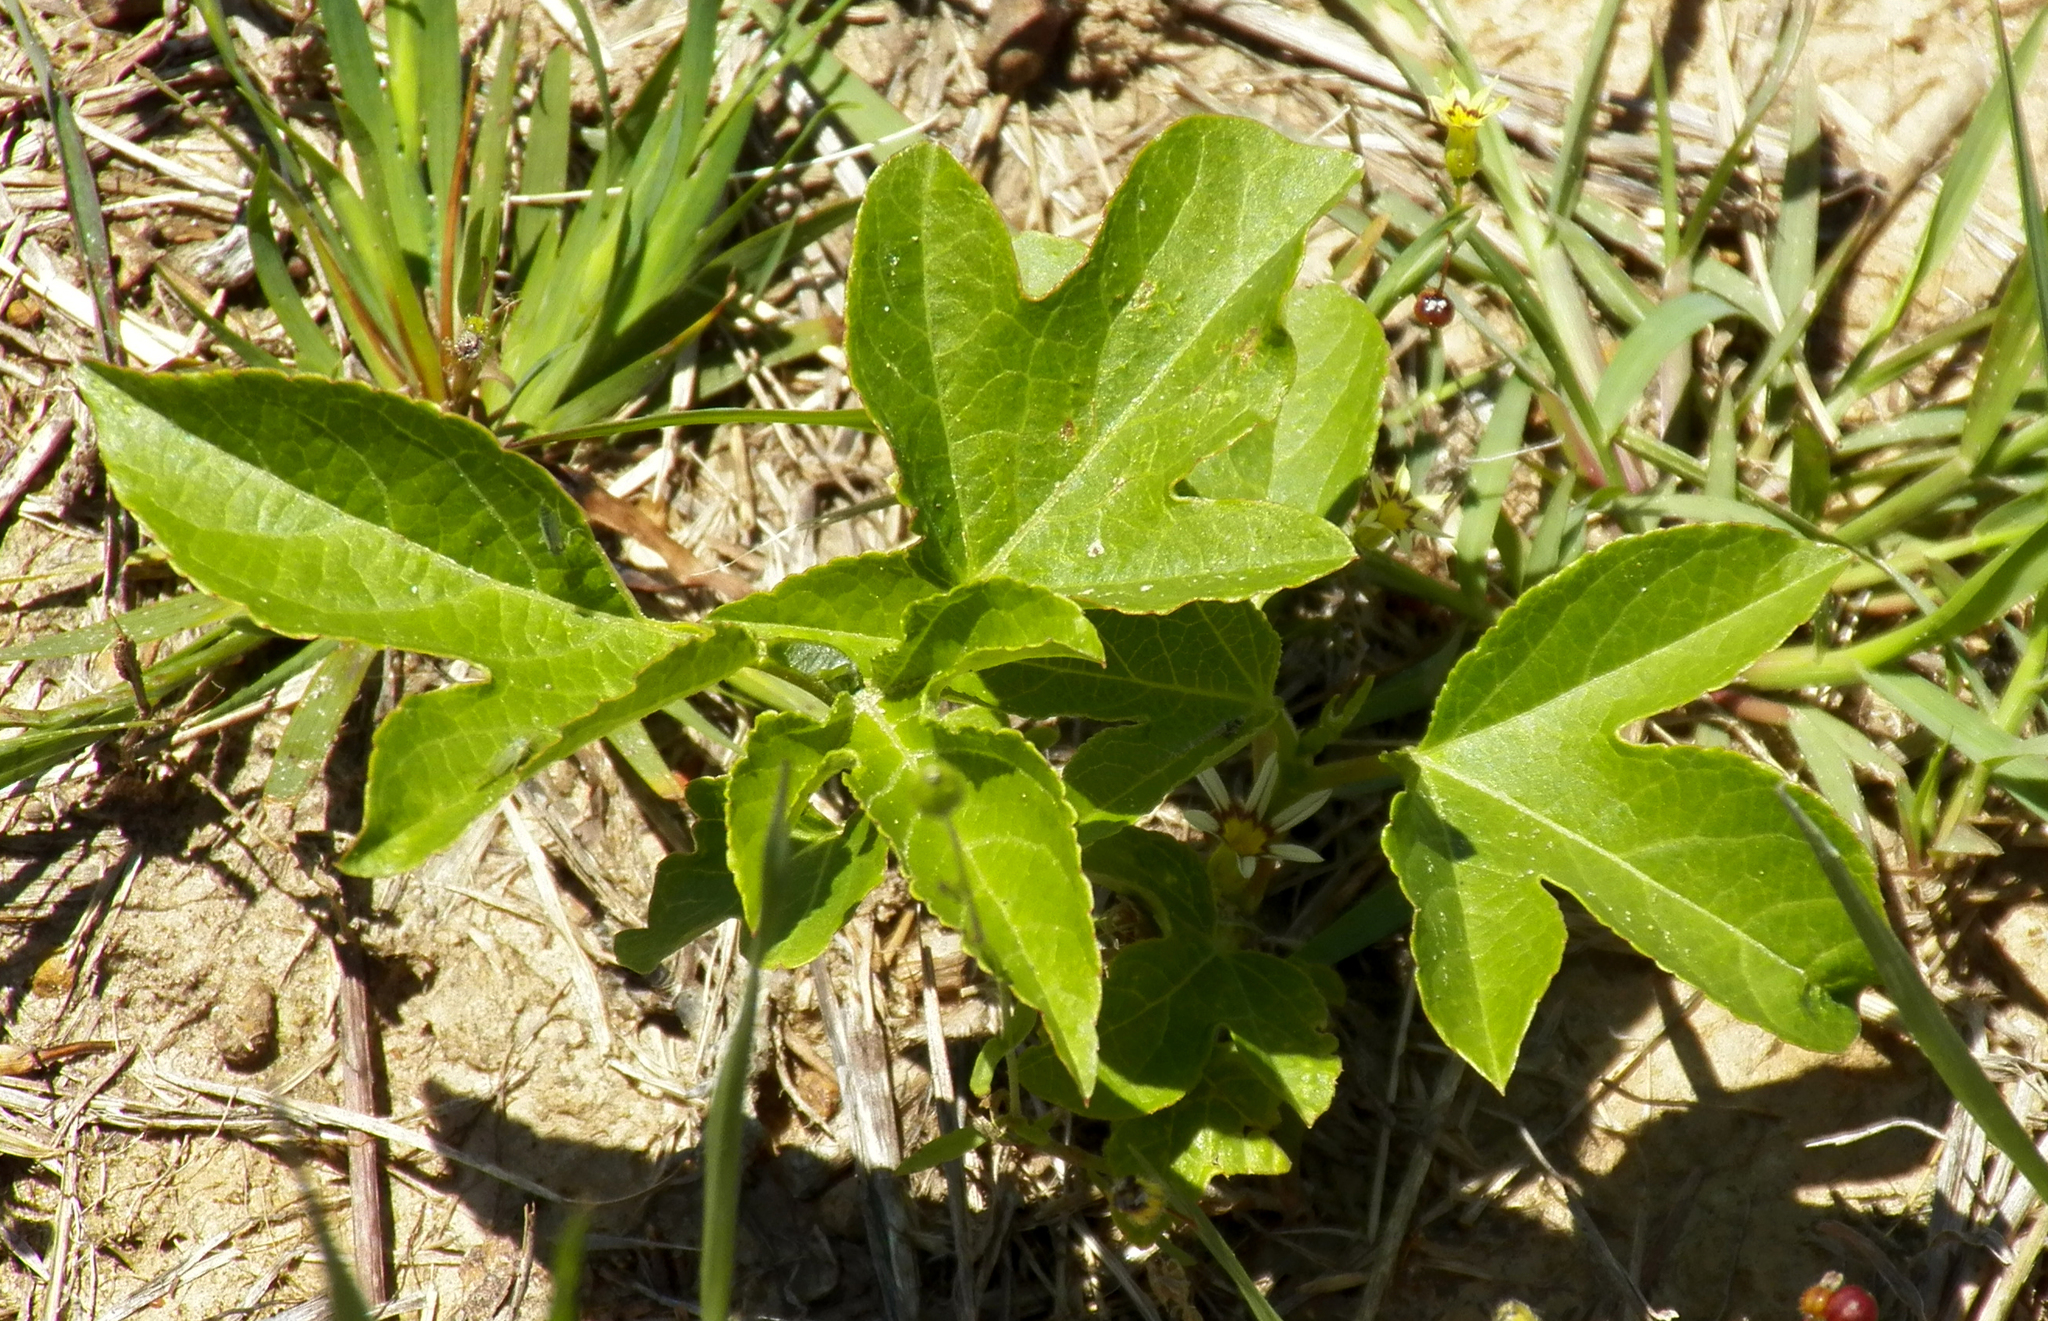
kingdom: Plantae
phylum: Tracheophyta
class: Magnoliopsida
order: Malpighiales
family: Passifloraceae
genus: Passiflora
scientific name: Passiflora incarnata
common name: Apricot-vine
